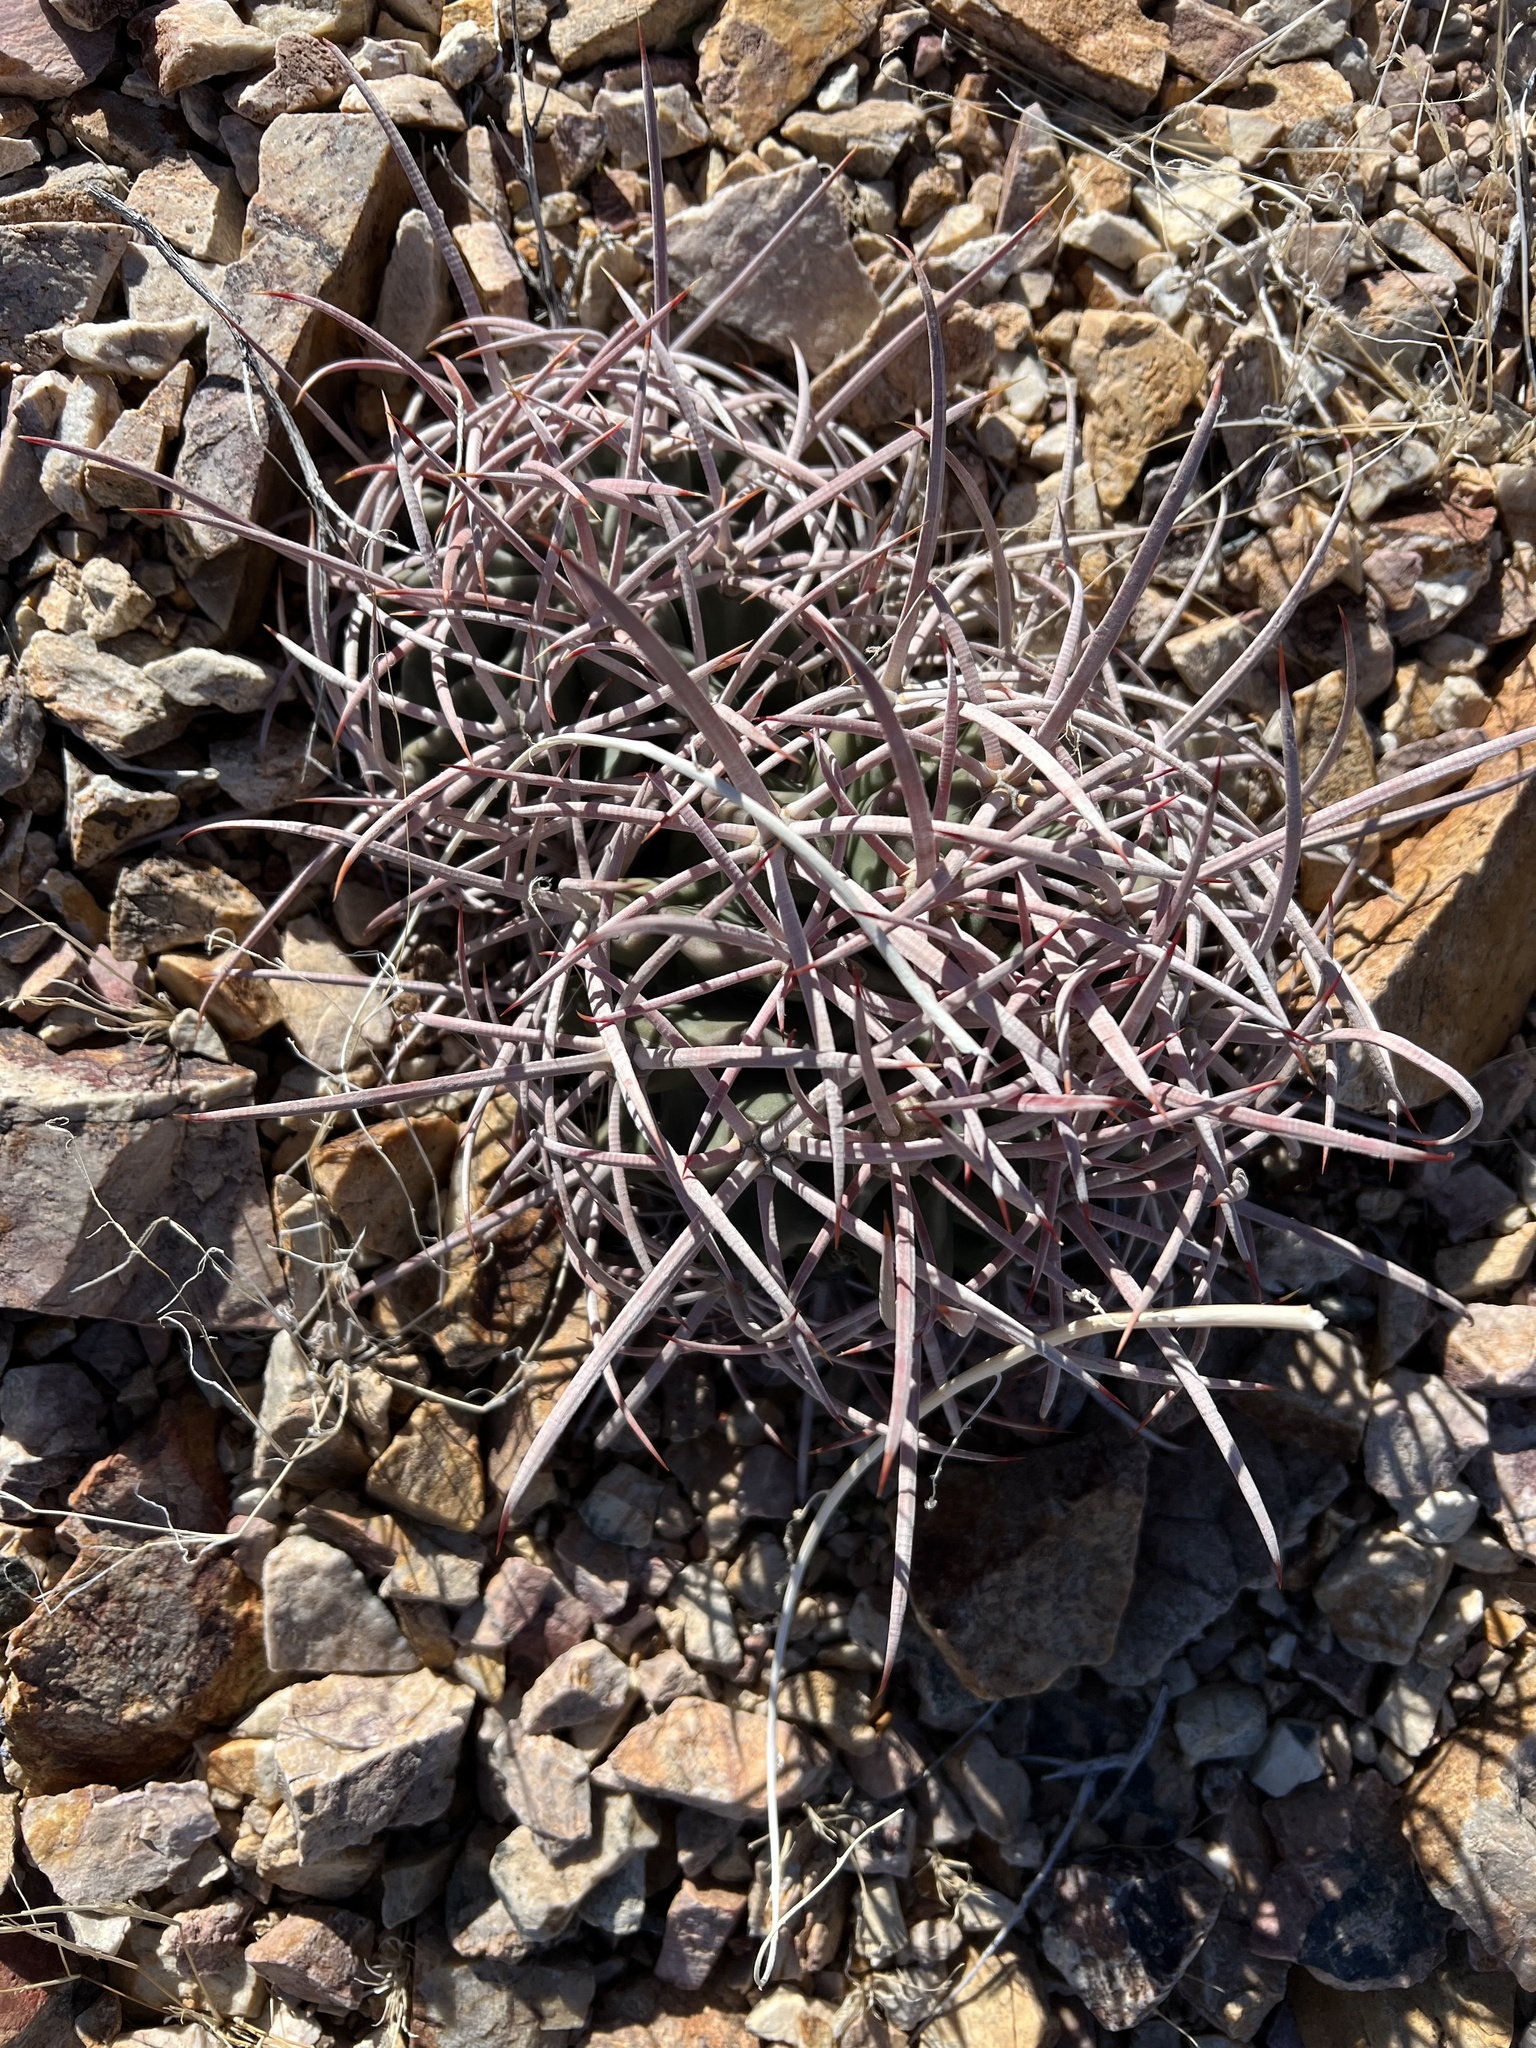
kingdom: Plantae
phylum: Tracheophyta
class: Magnoliopsida
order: Caryophyllales
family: Cactaceae
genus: Echinocactus
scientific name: Echinocactus polycephalus
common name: Cottontop cactus
